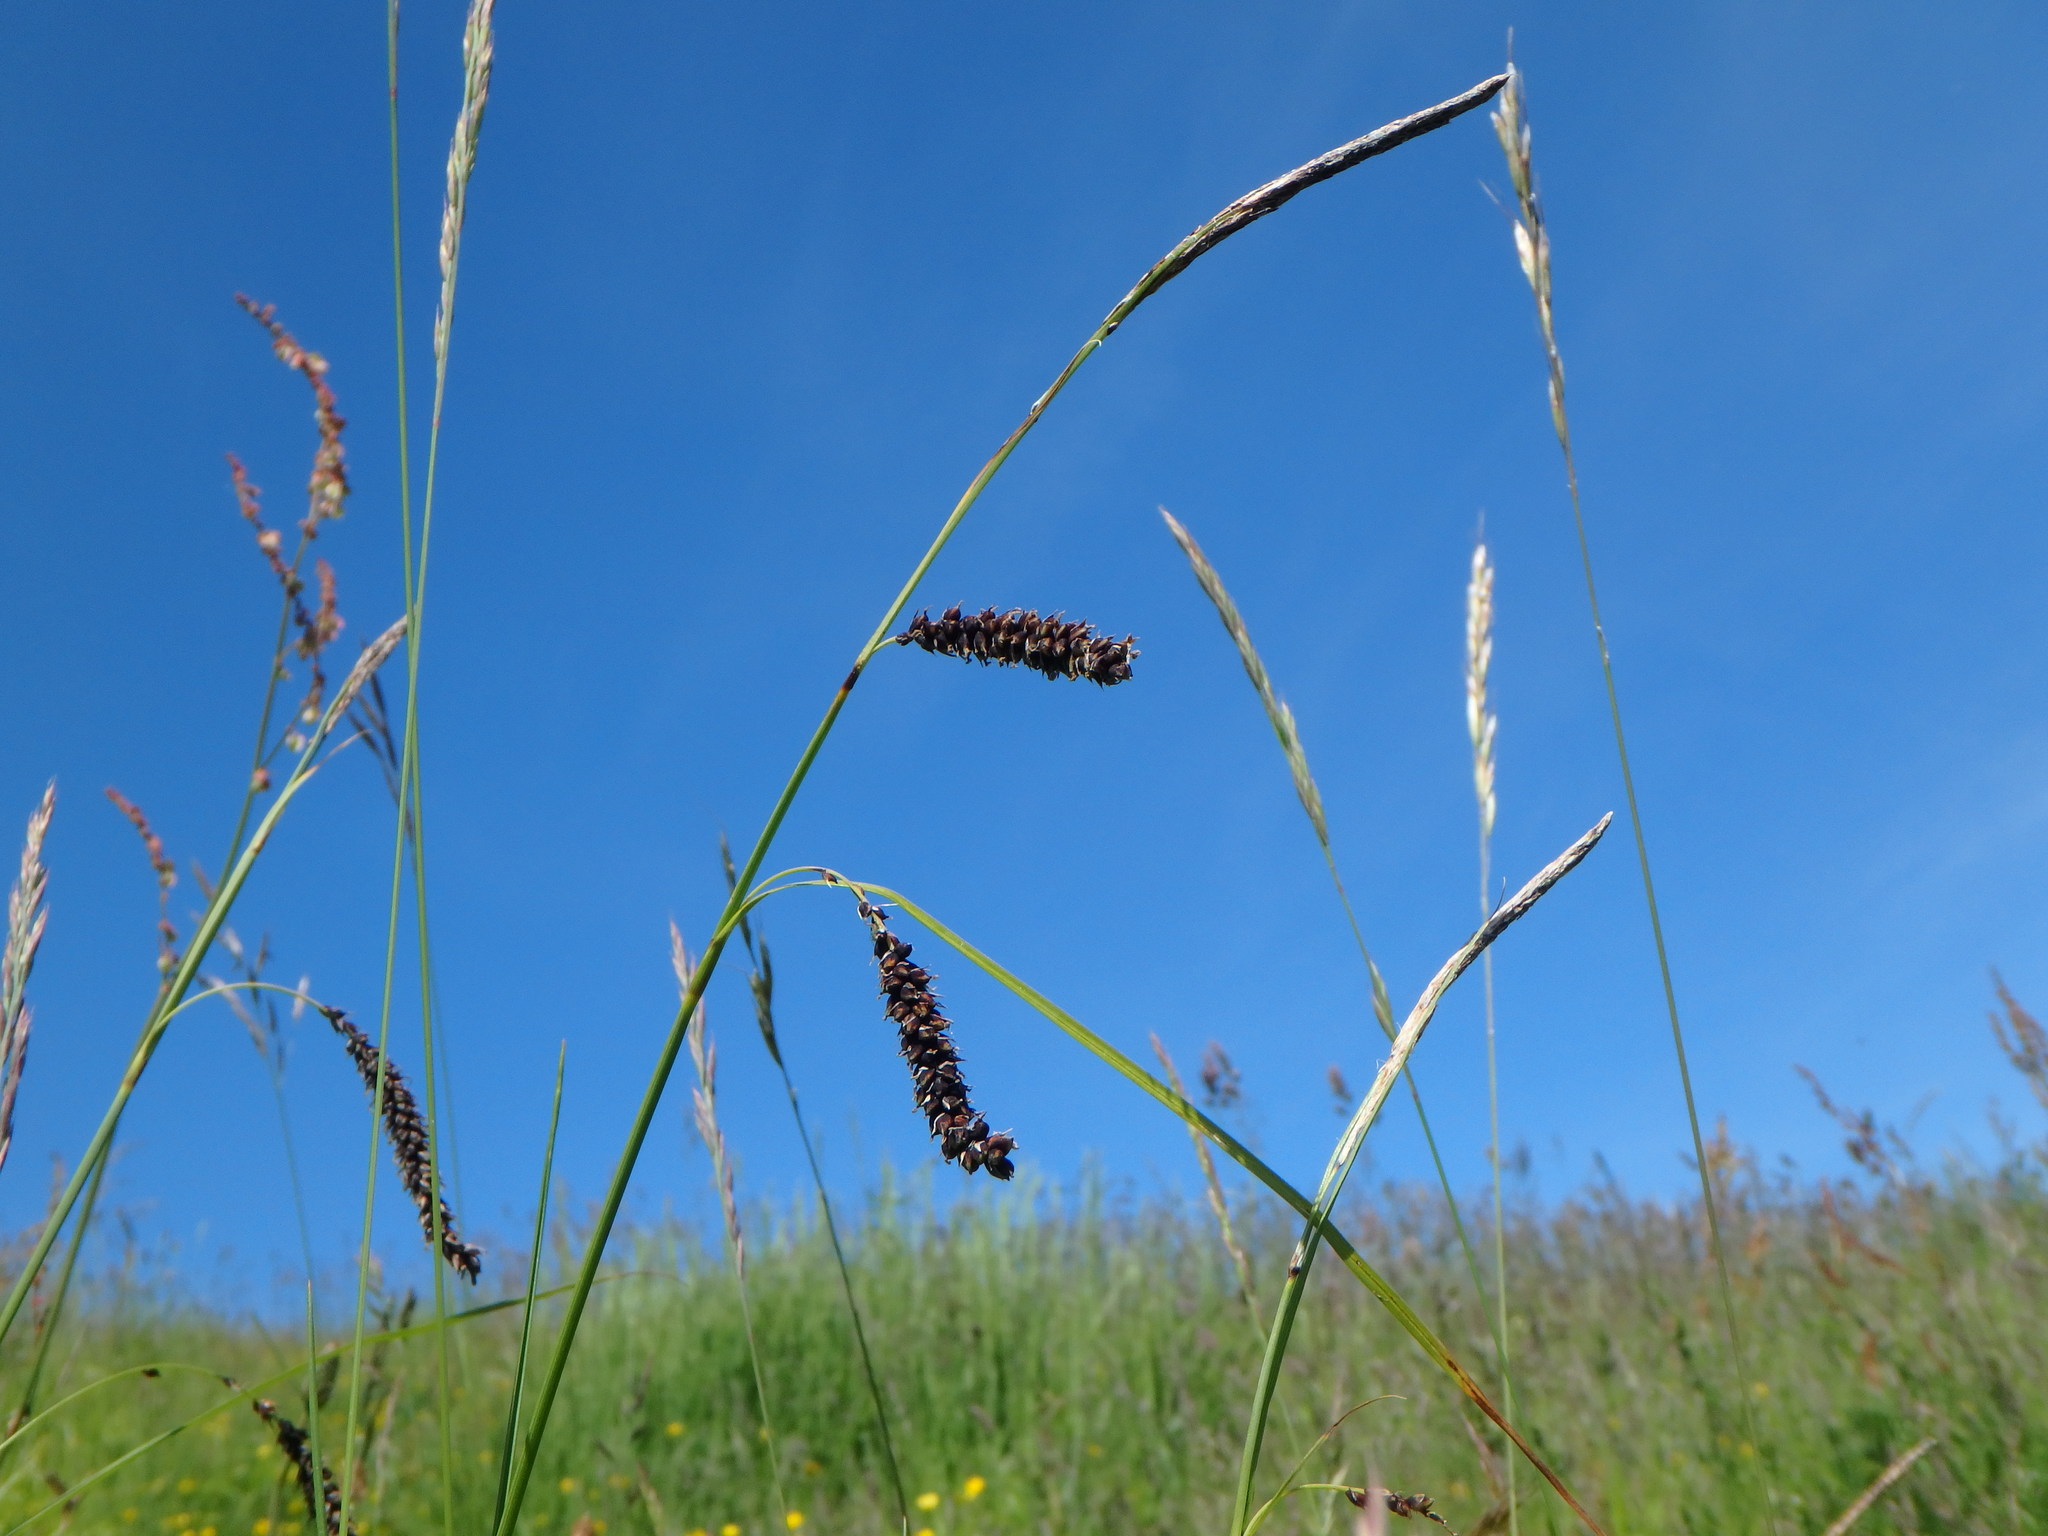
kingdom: Plantae
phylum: Tracheophyta
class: Liliopsida
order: Poales
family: Cyperaceae
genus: Carex
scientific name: Carex flacca
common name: Glaucous sedge
